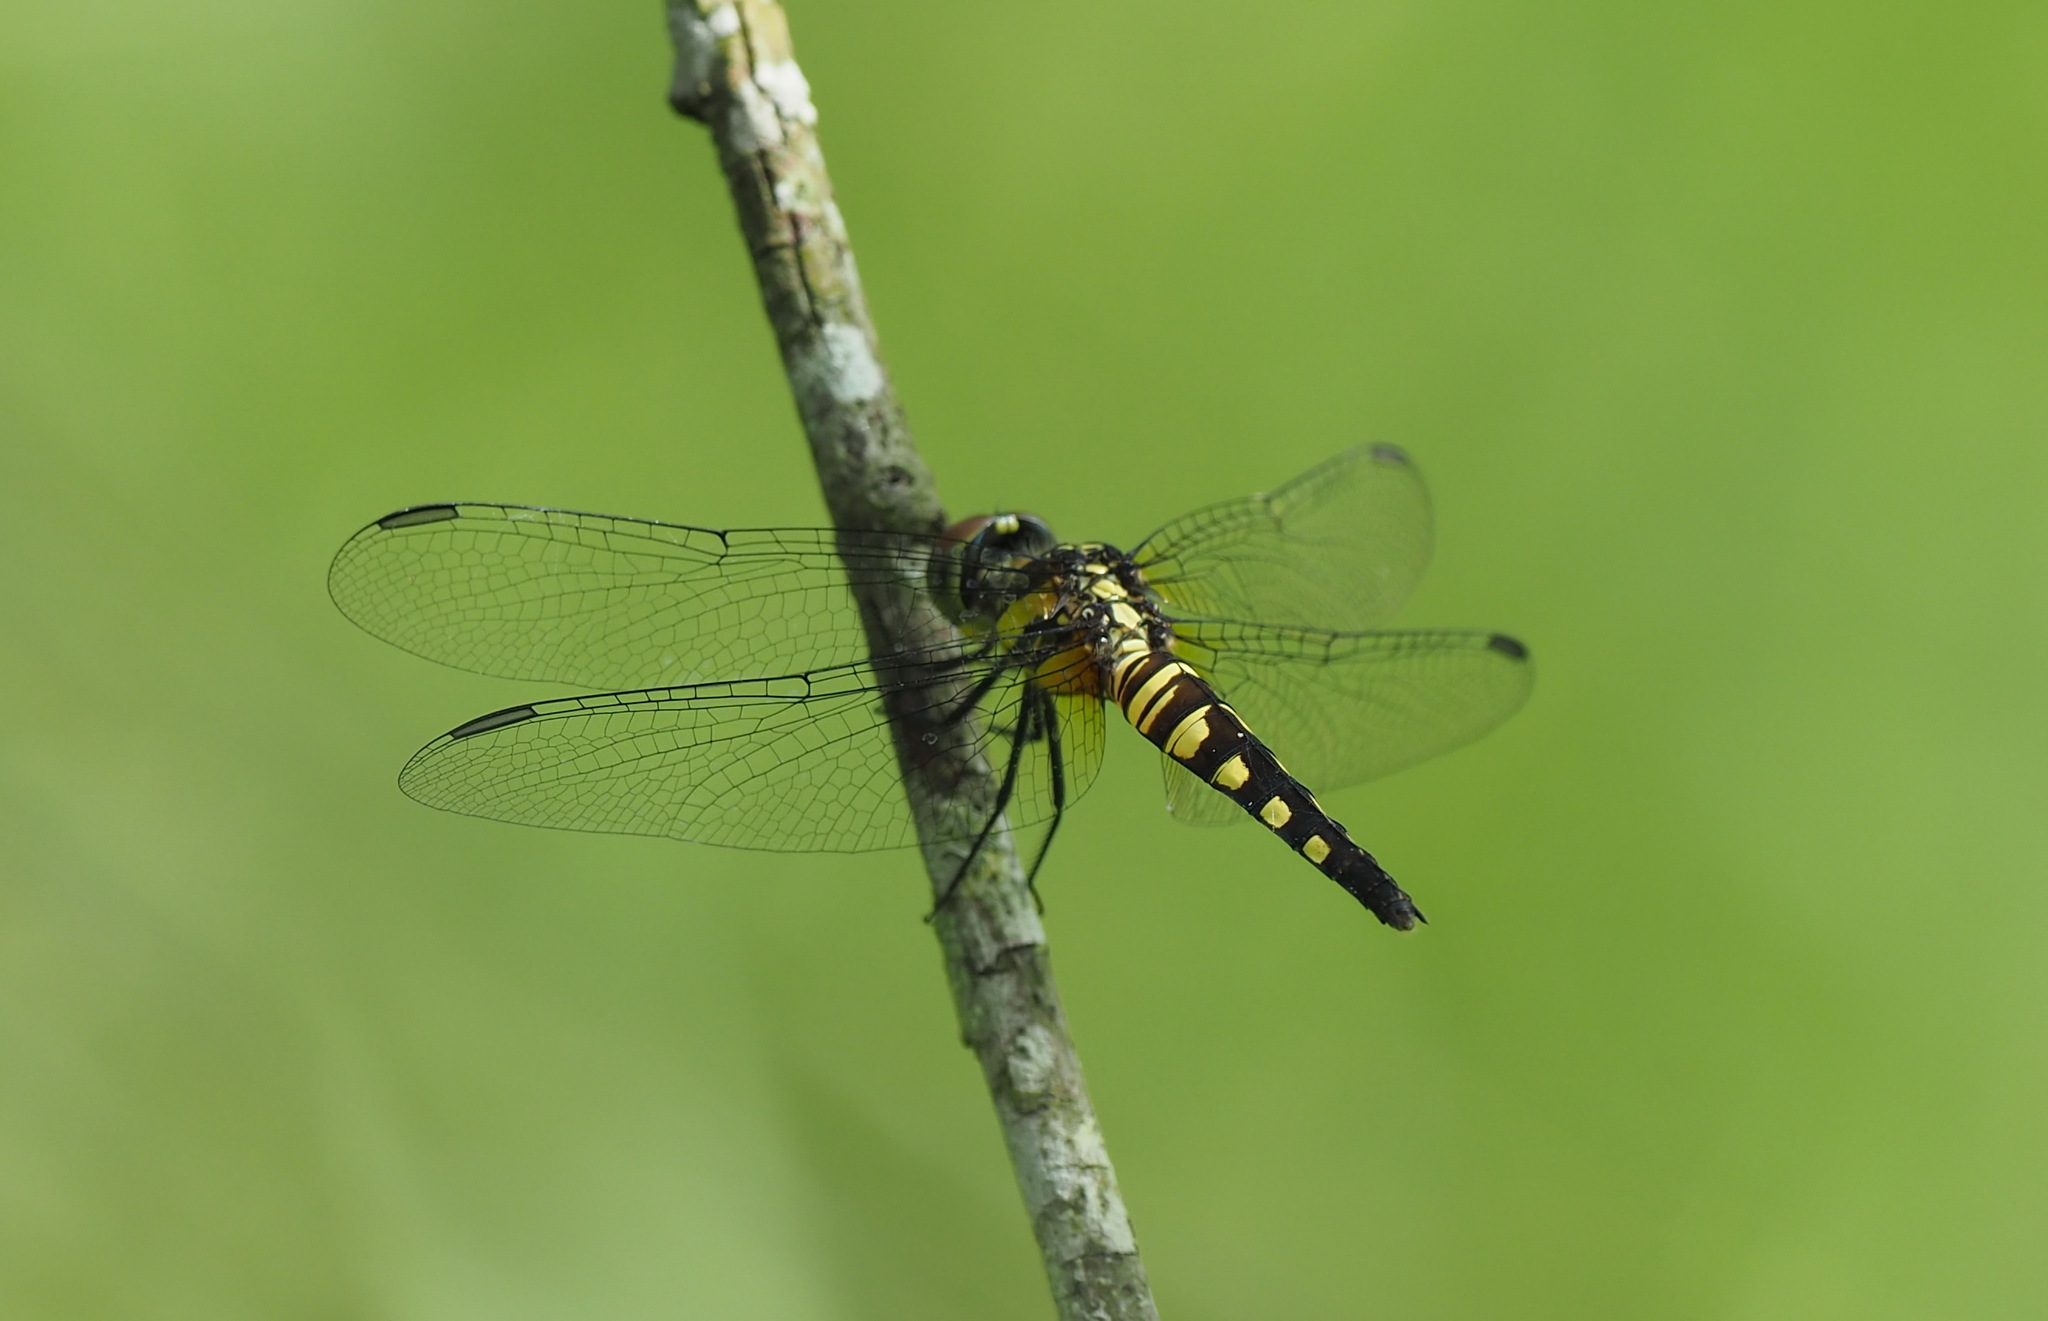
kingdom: Animalia
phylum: Arthropoda
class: Insecta
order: Odonata
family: Libellulidae
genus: Brachydiplax
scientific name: Brachydiplax chalybea
